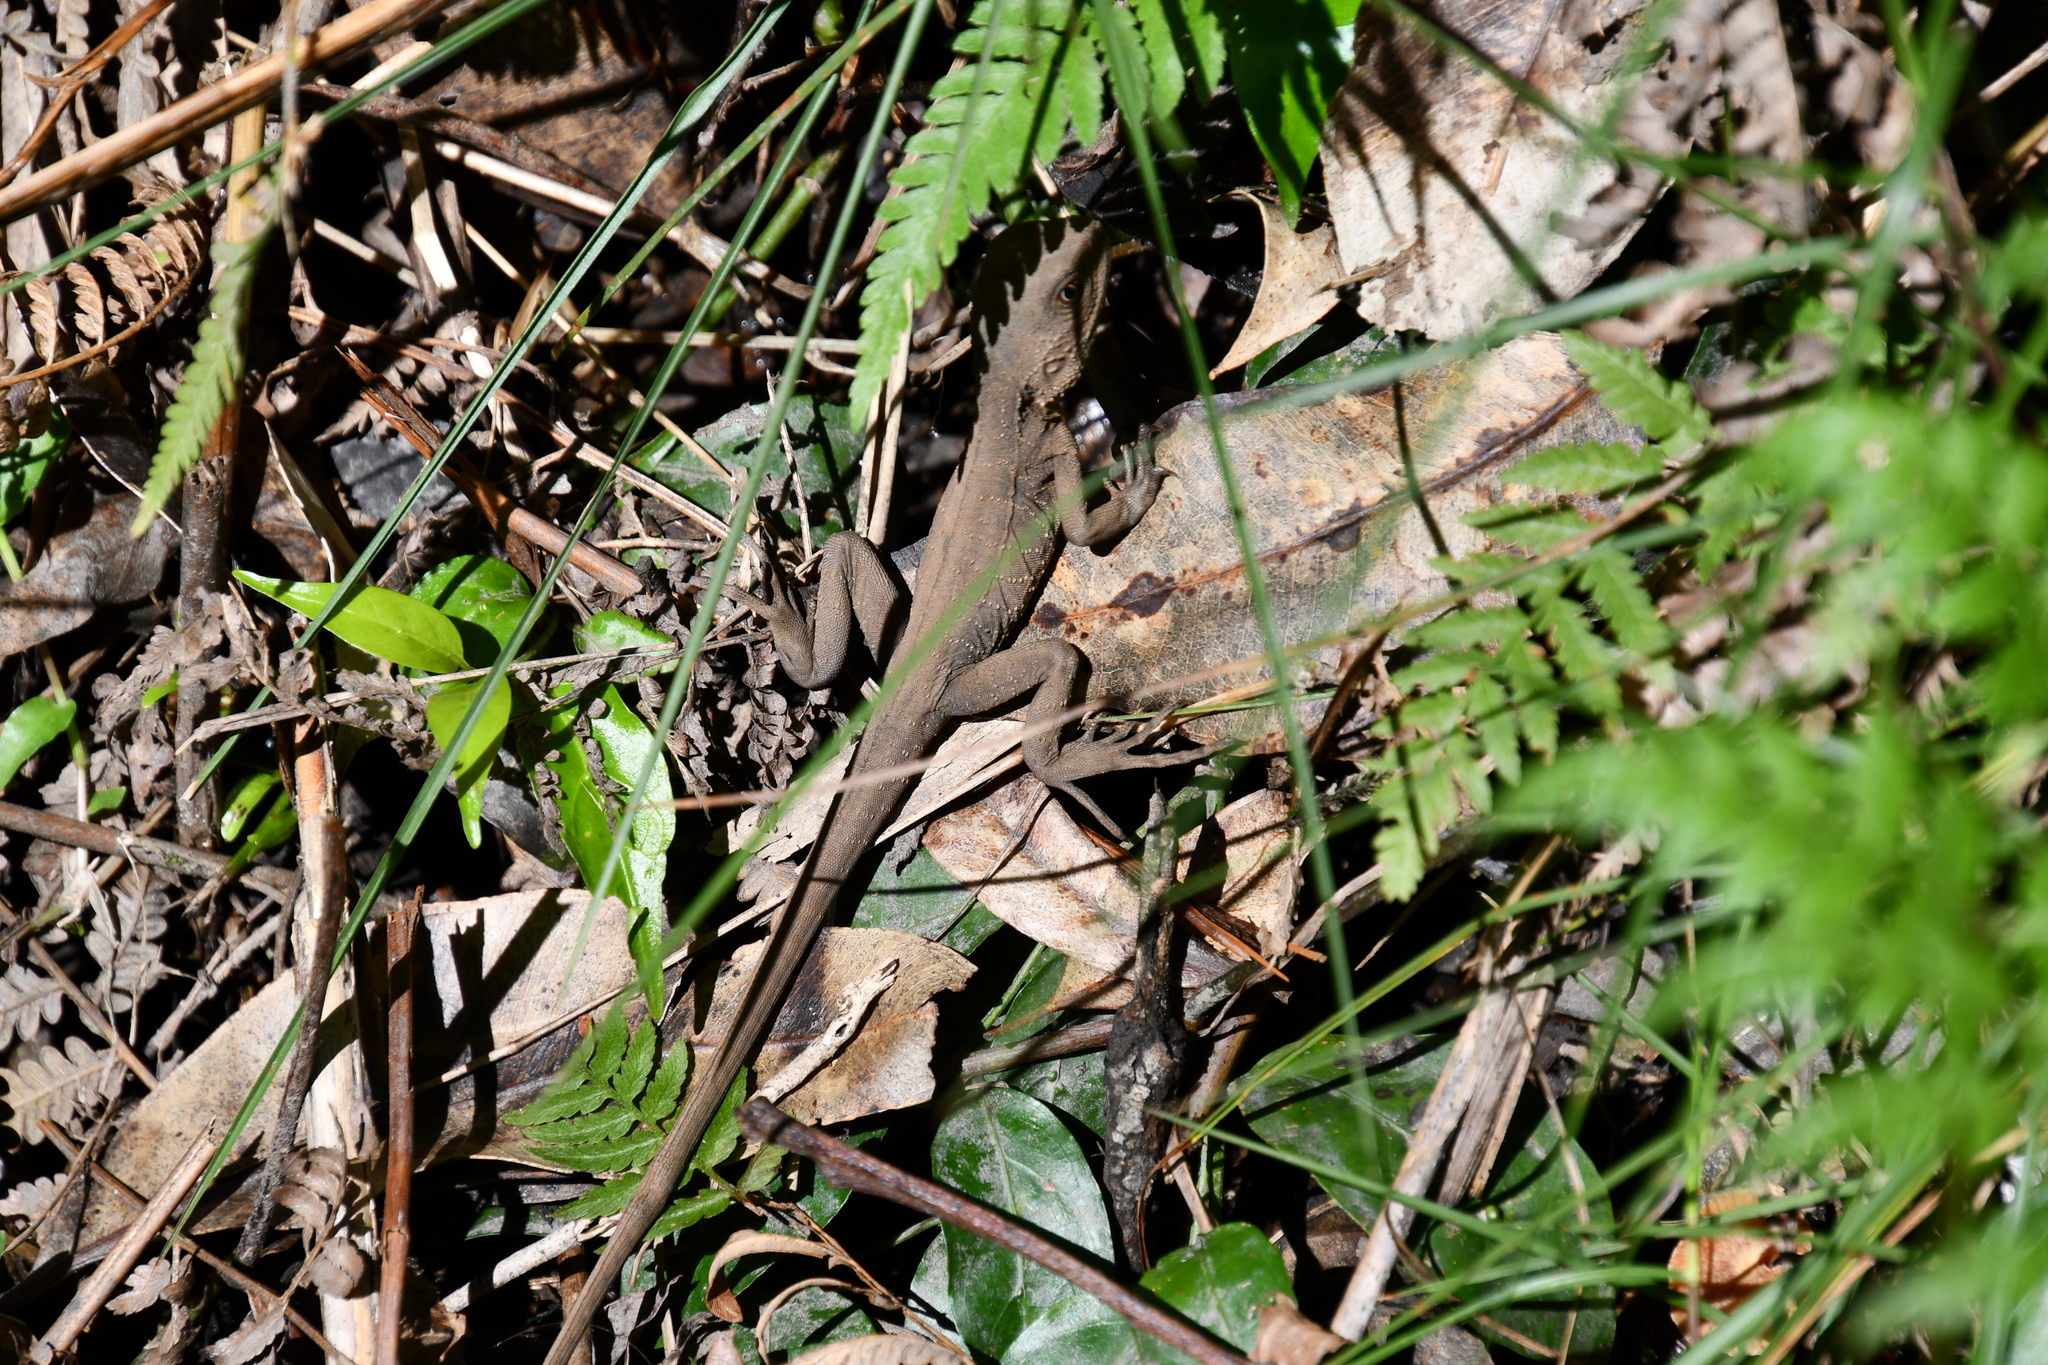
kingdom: Animalia
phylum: Chordata
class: Squamata
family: Agamidae
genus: Intellagama
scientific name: Intellagama lesueurii
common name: Eastern water dragon
